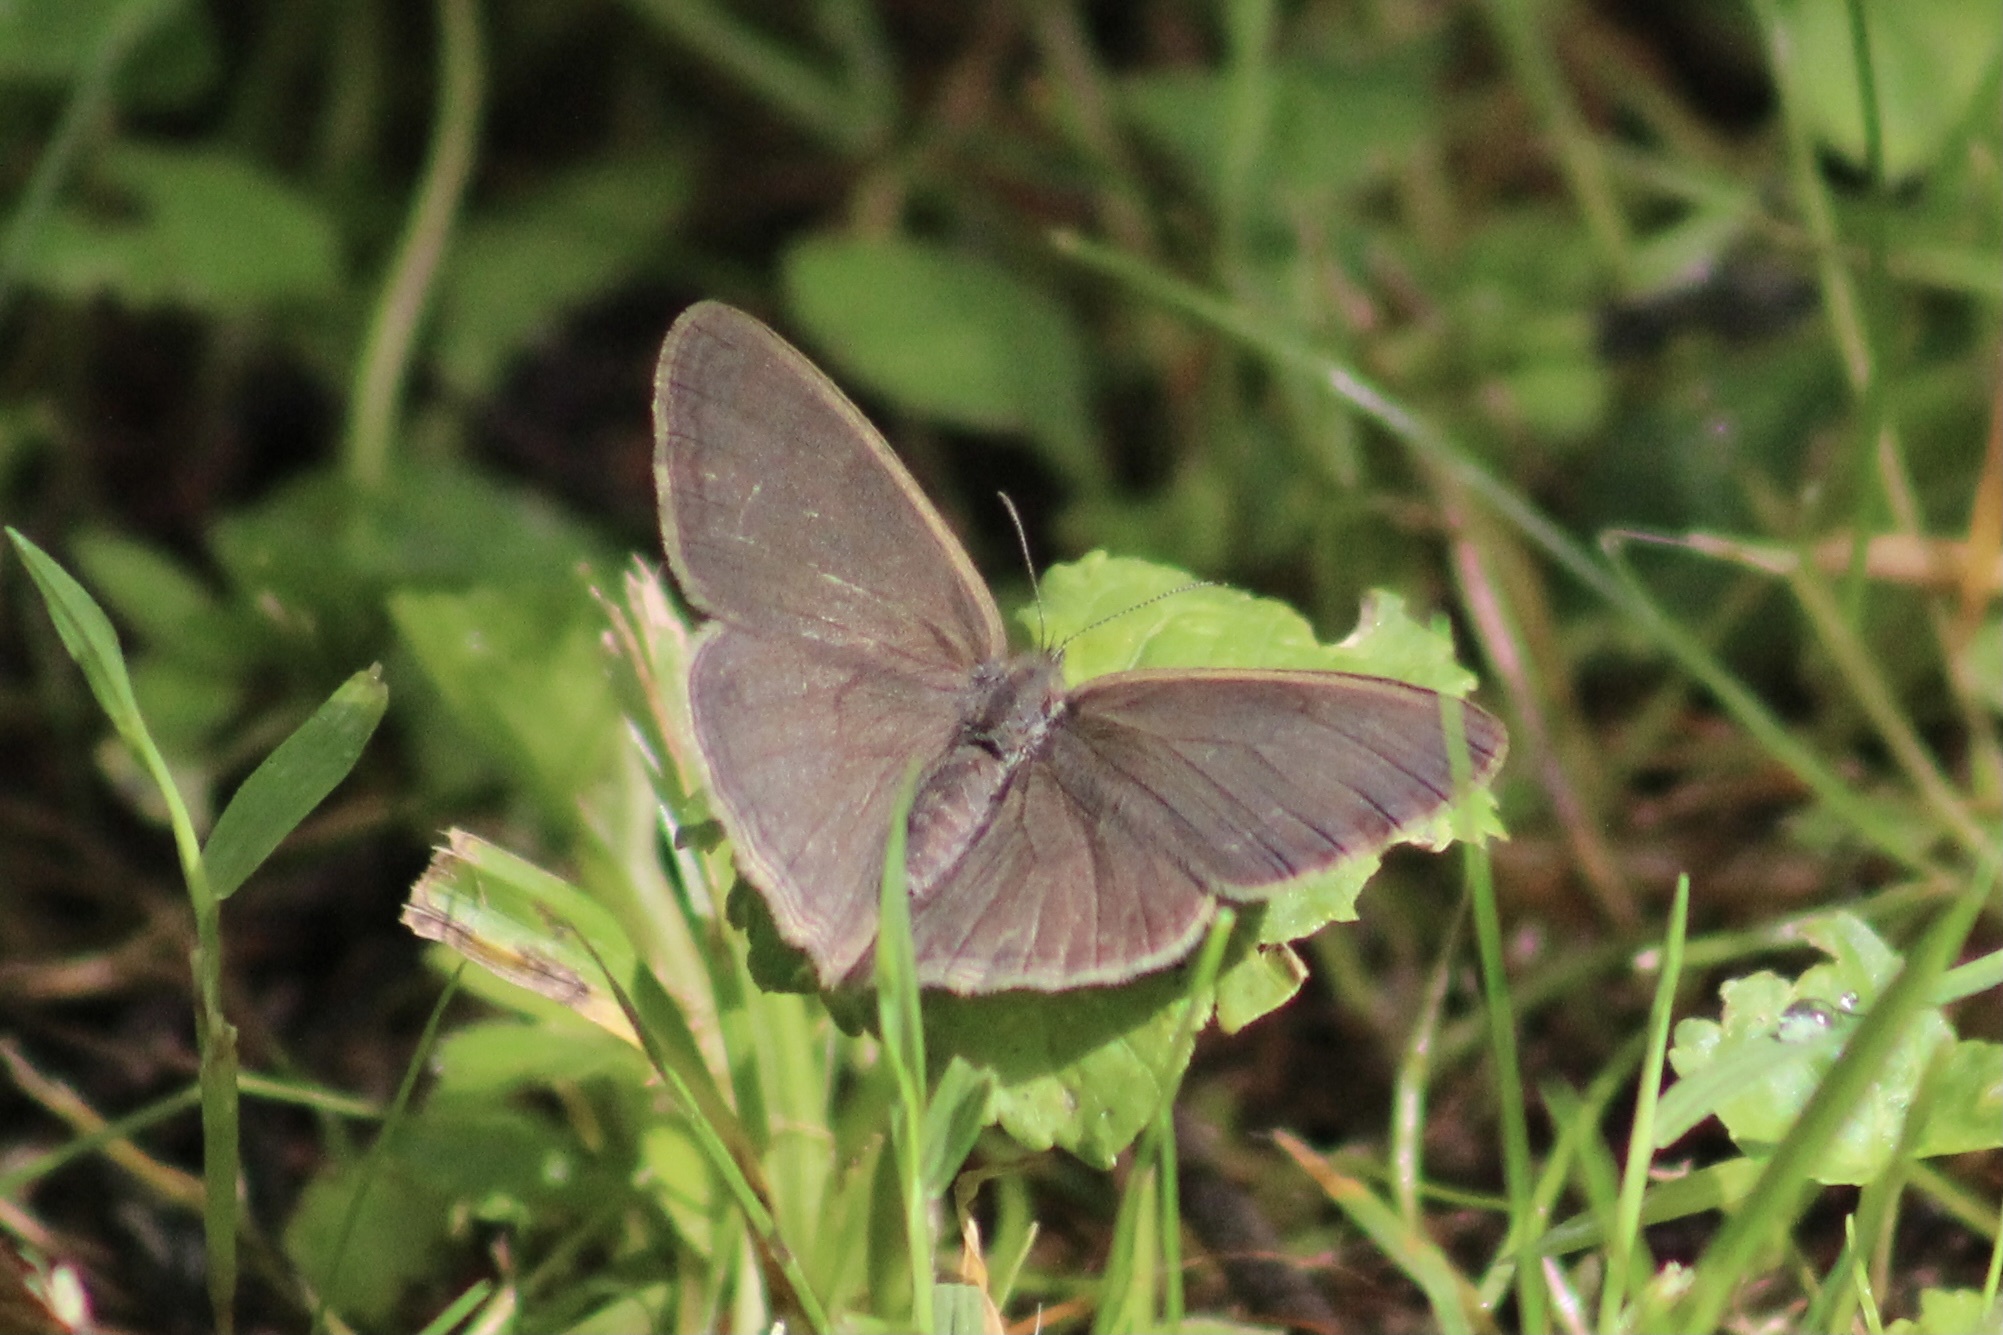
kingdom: Animalia
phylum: Arthropoda
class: Insecta
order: Lepidoptera
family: Nymphalidae
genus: Hermeuptychia
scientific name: Hermeuptychia hermes
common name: Hermes satyr
